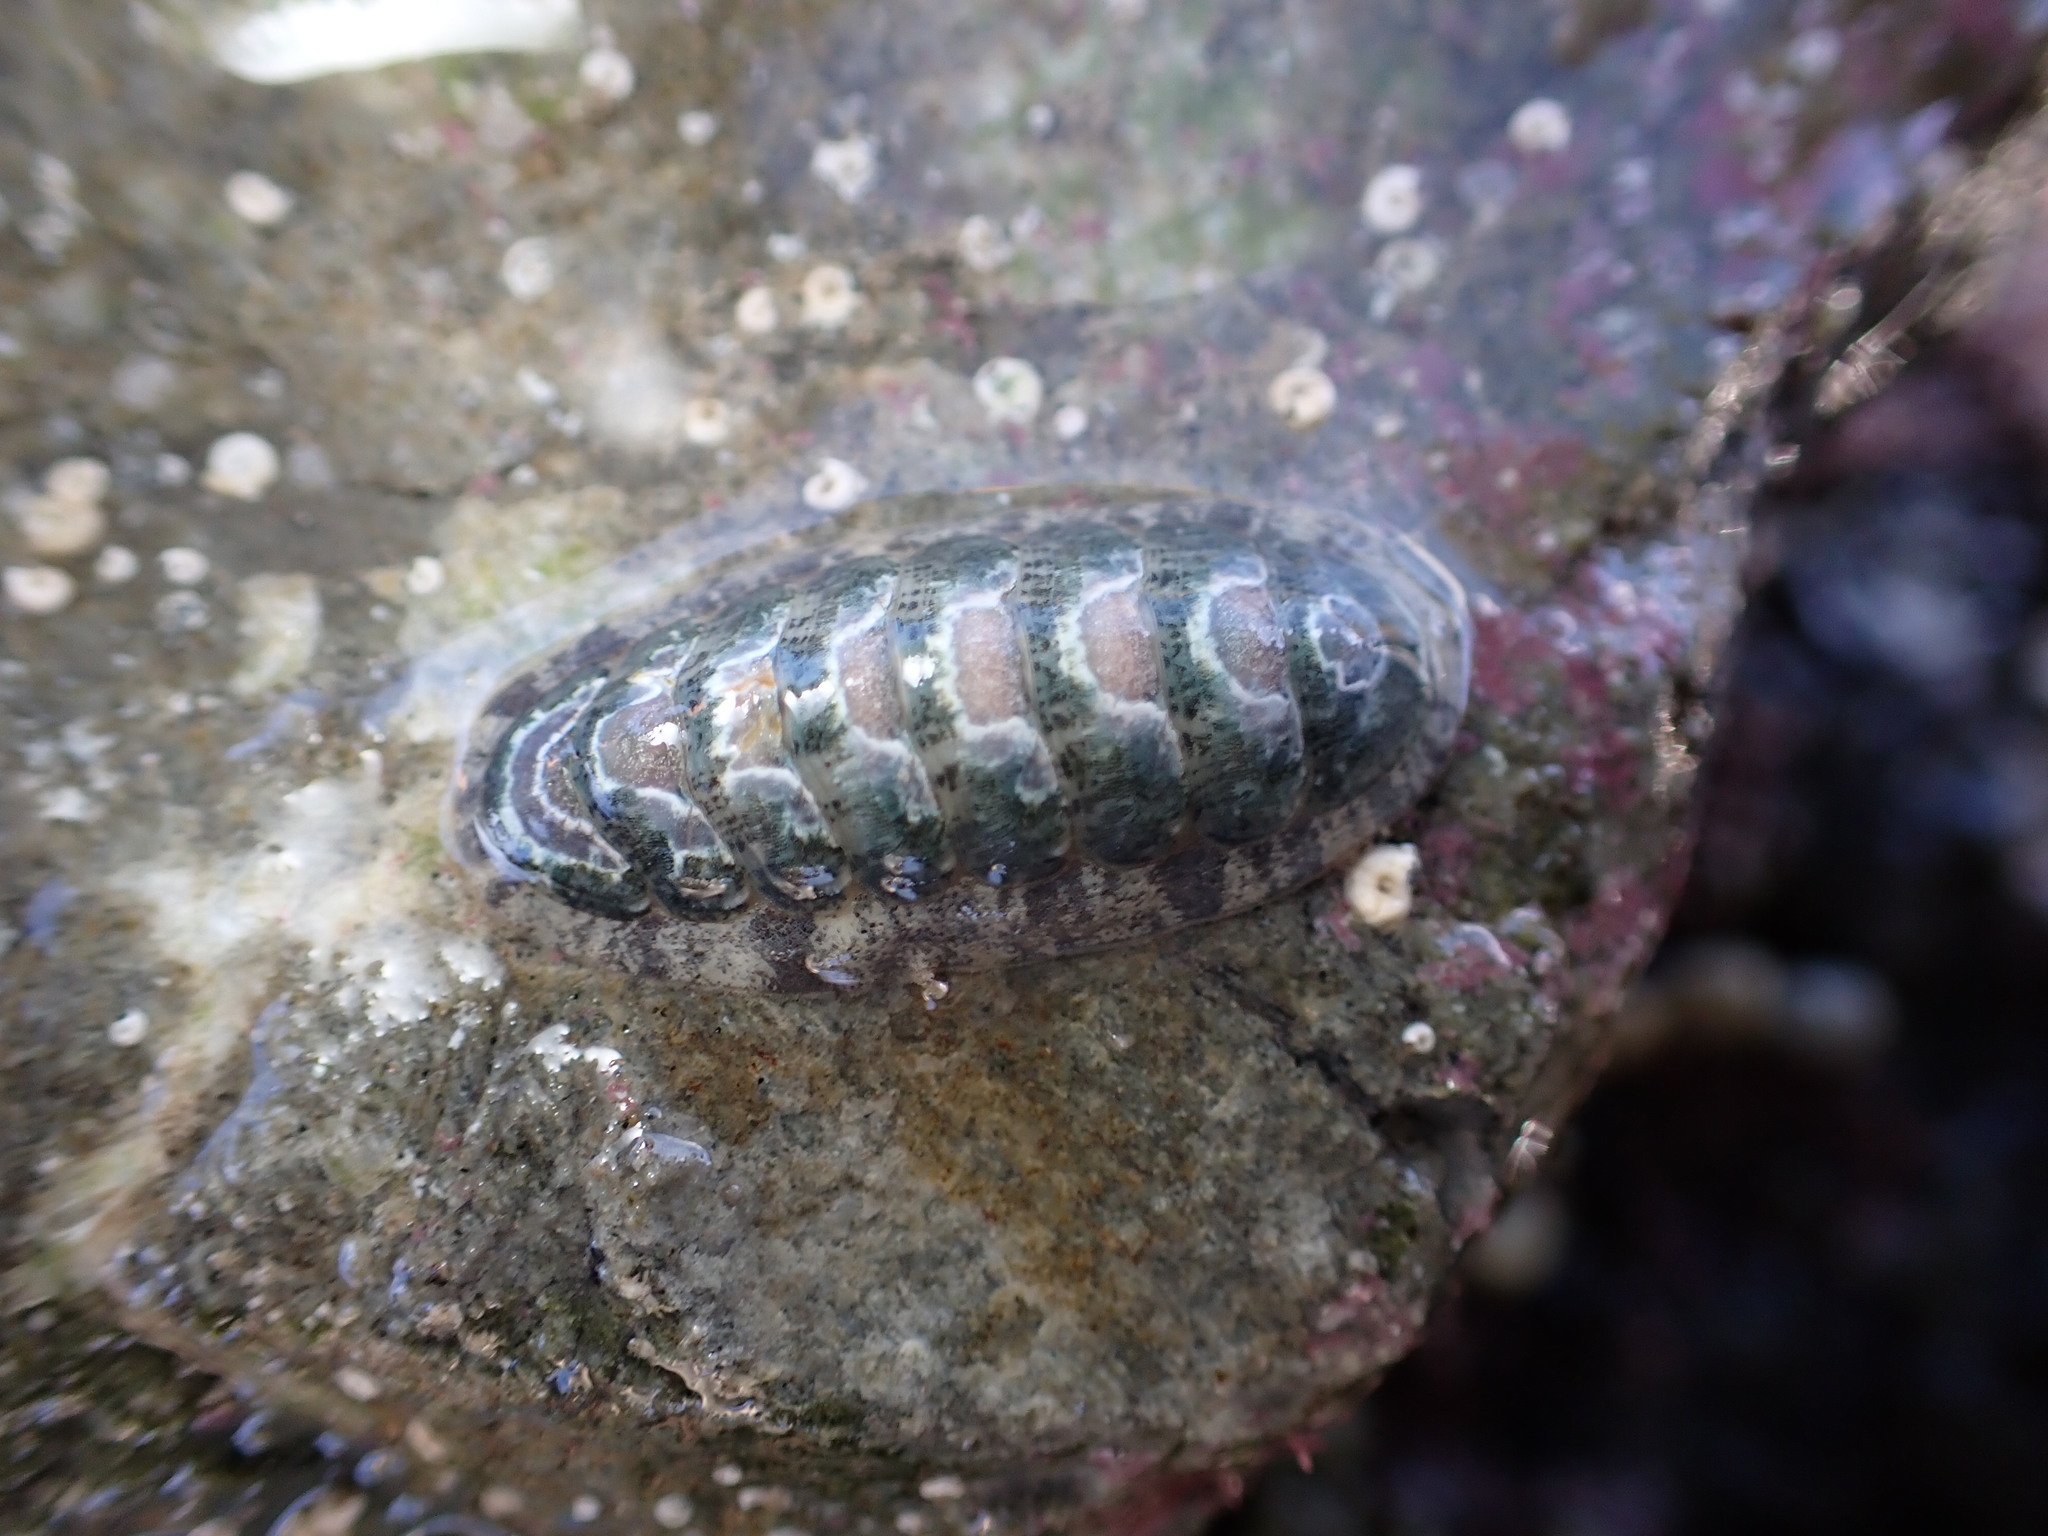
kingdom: Animalia
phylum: Mollusca
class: Polyplacophora
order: Chitonida
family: Ischnochitonidae
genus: Ischnochiton
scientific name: Ischnochiton maorianus
